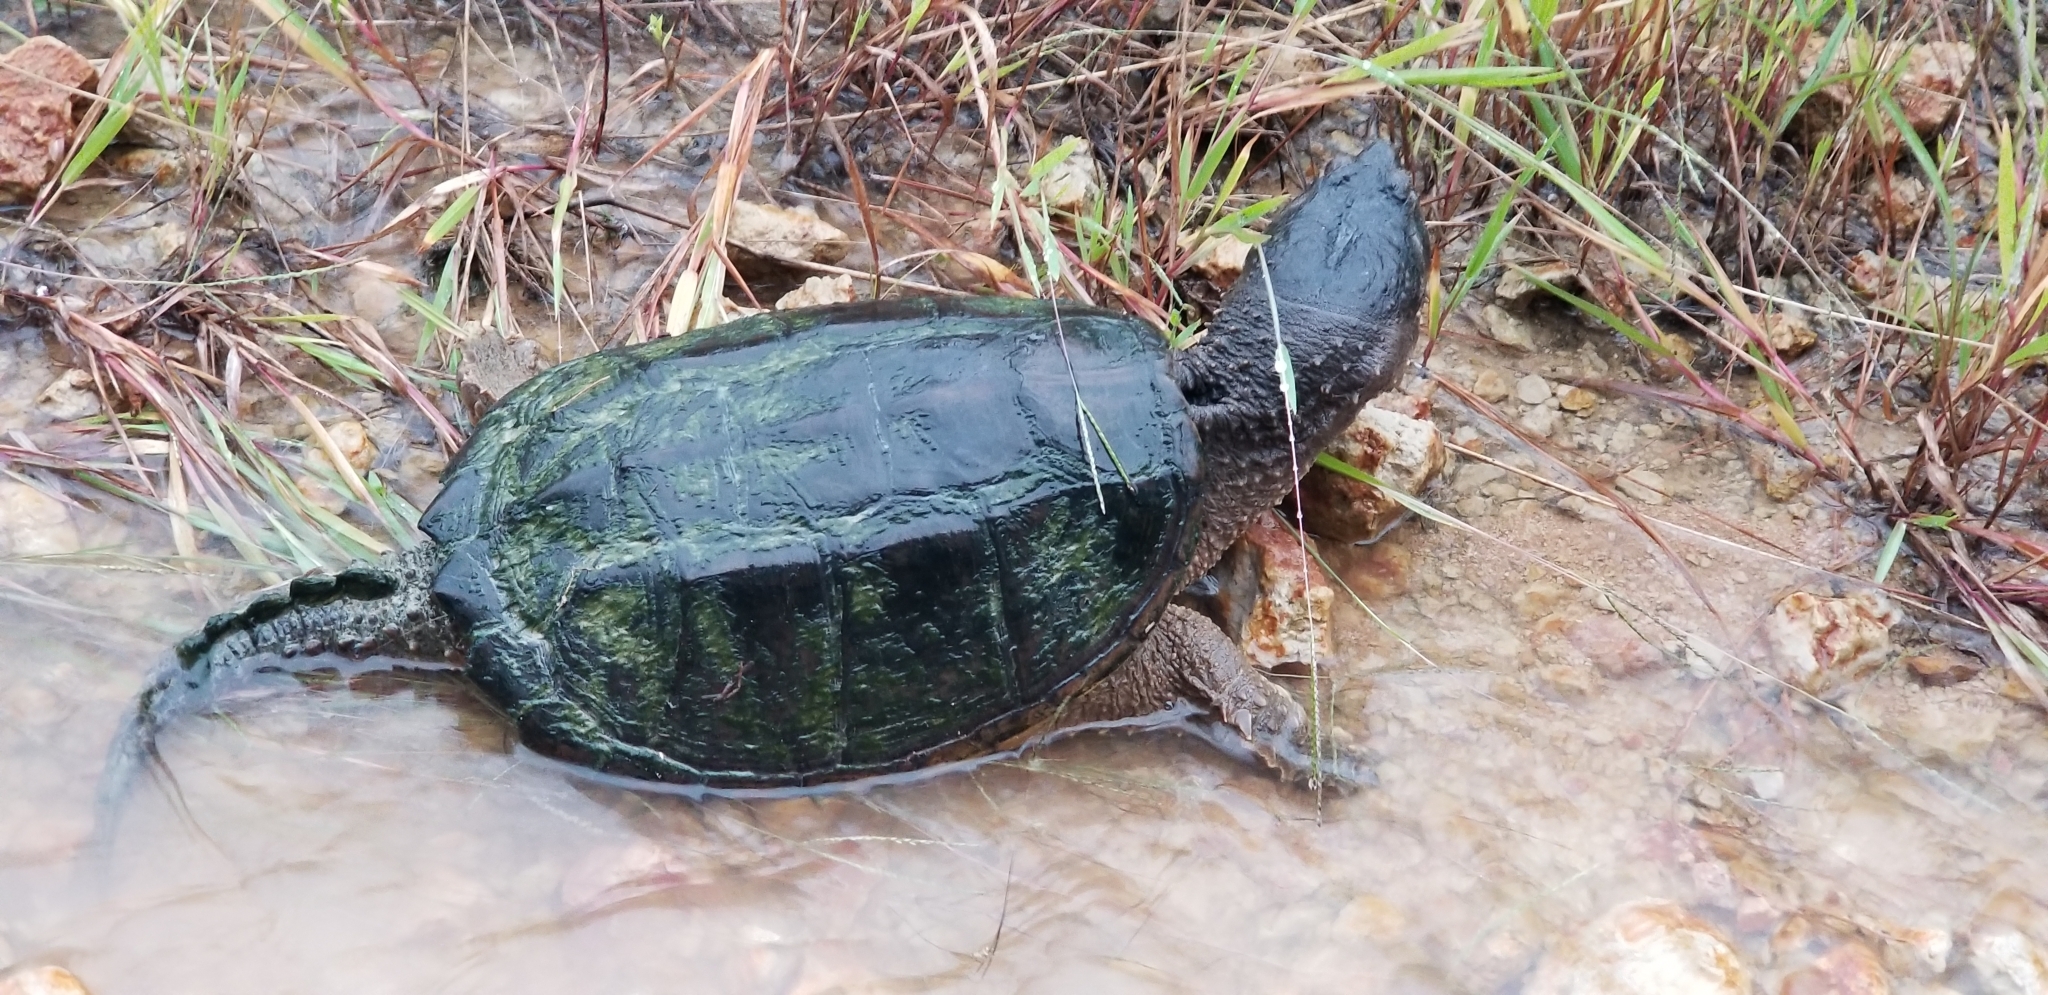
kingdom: Animalia
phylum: Chordata
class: Testudines
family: Chelydridae
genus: Chelydra
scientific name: Chelydra serpentina
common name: Common snapping turtle
